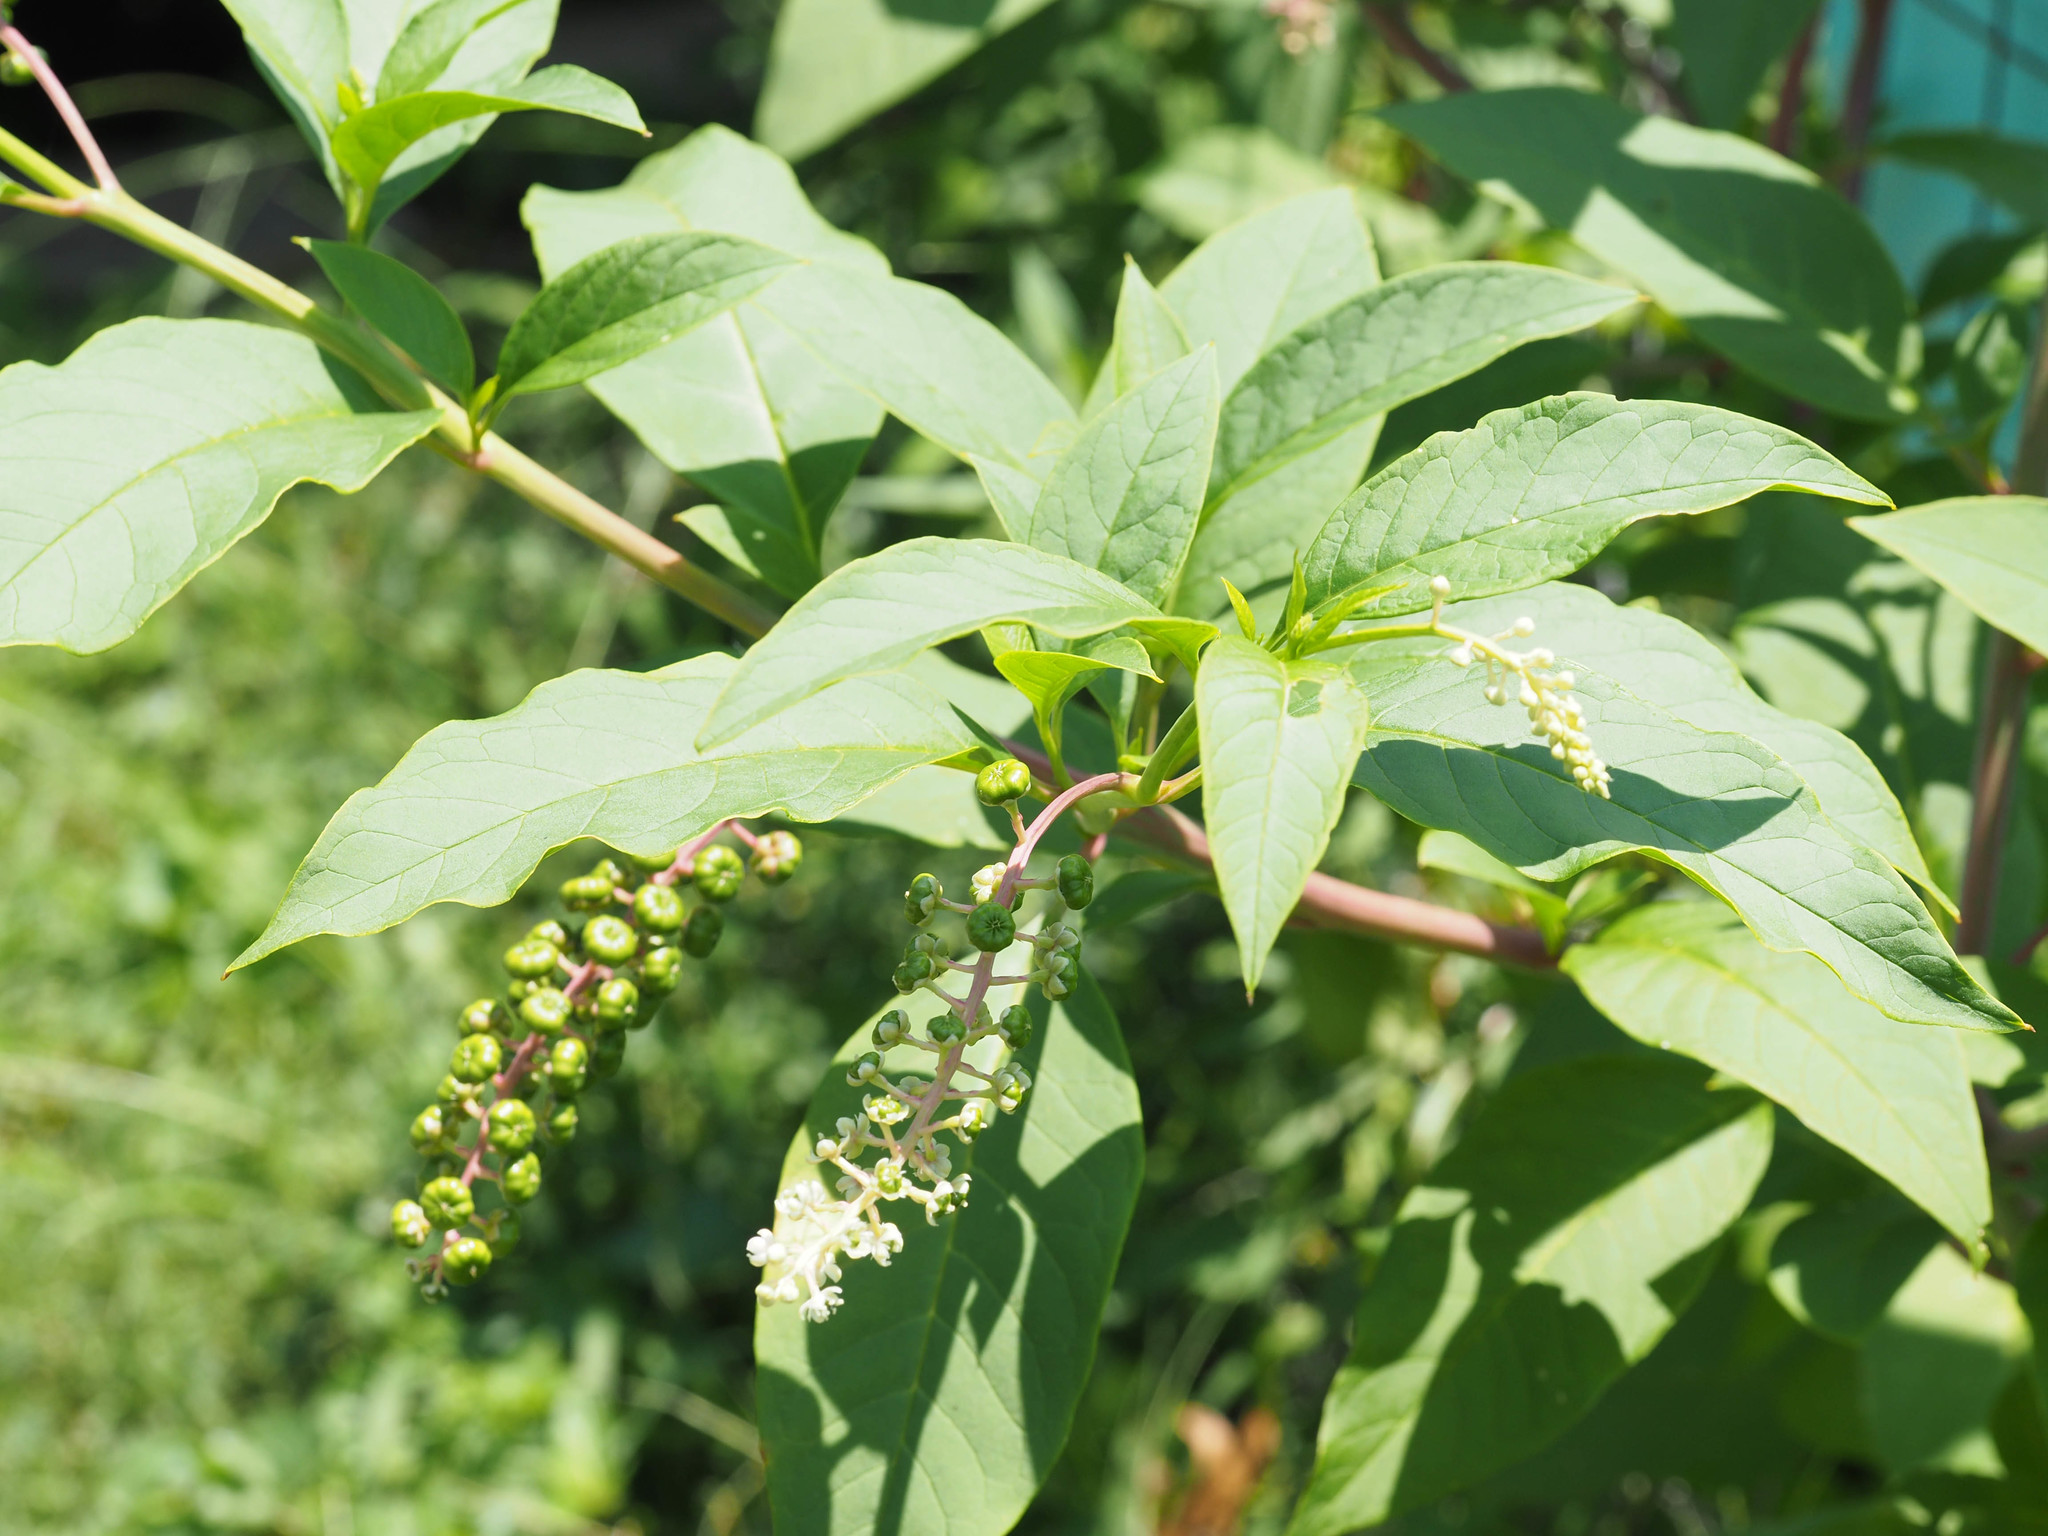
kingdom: Plantae
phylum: Tracheophyta
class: Magnoliopsida
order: Caryophyllales
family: Phytolaccaceae
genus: Phytolacca
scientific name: Phytolacca americana
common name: American pokeweed
